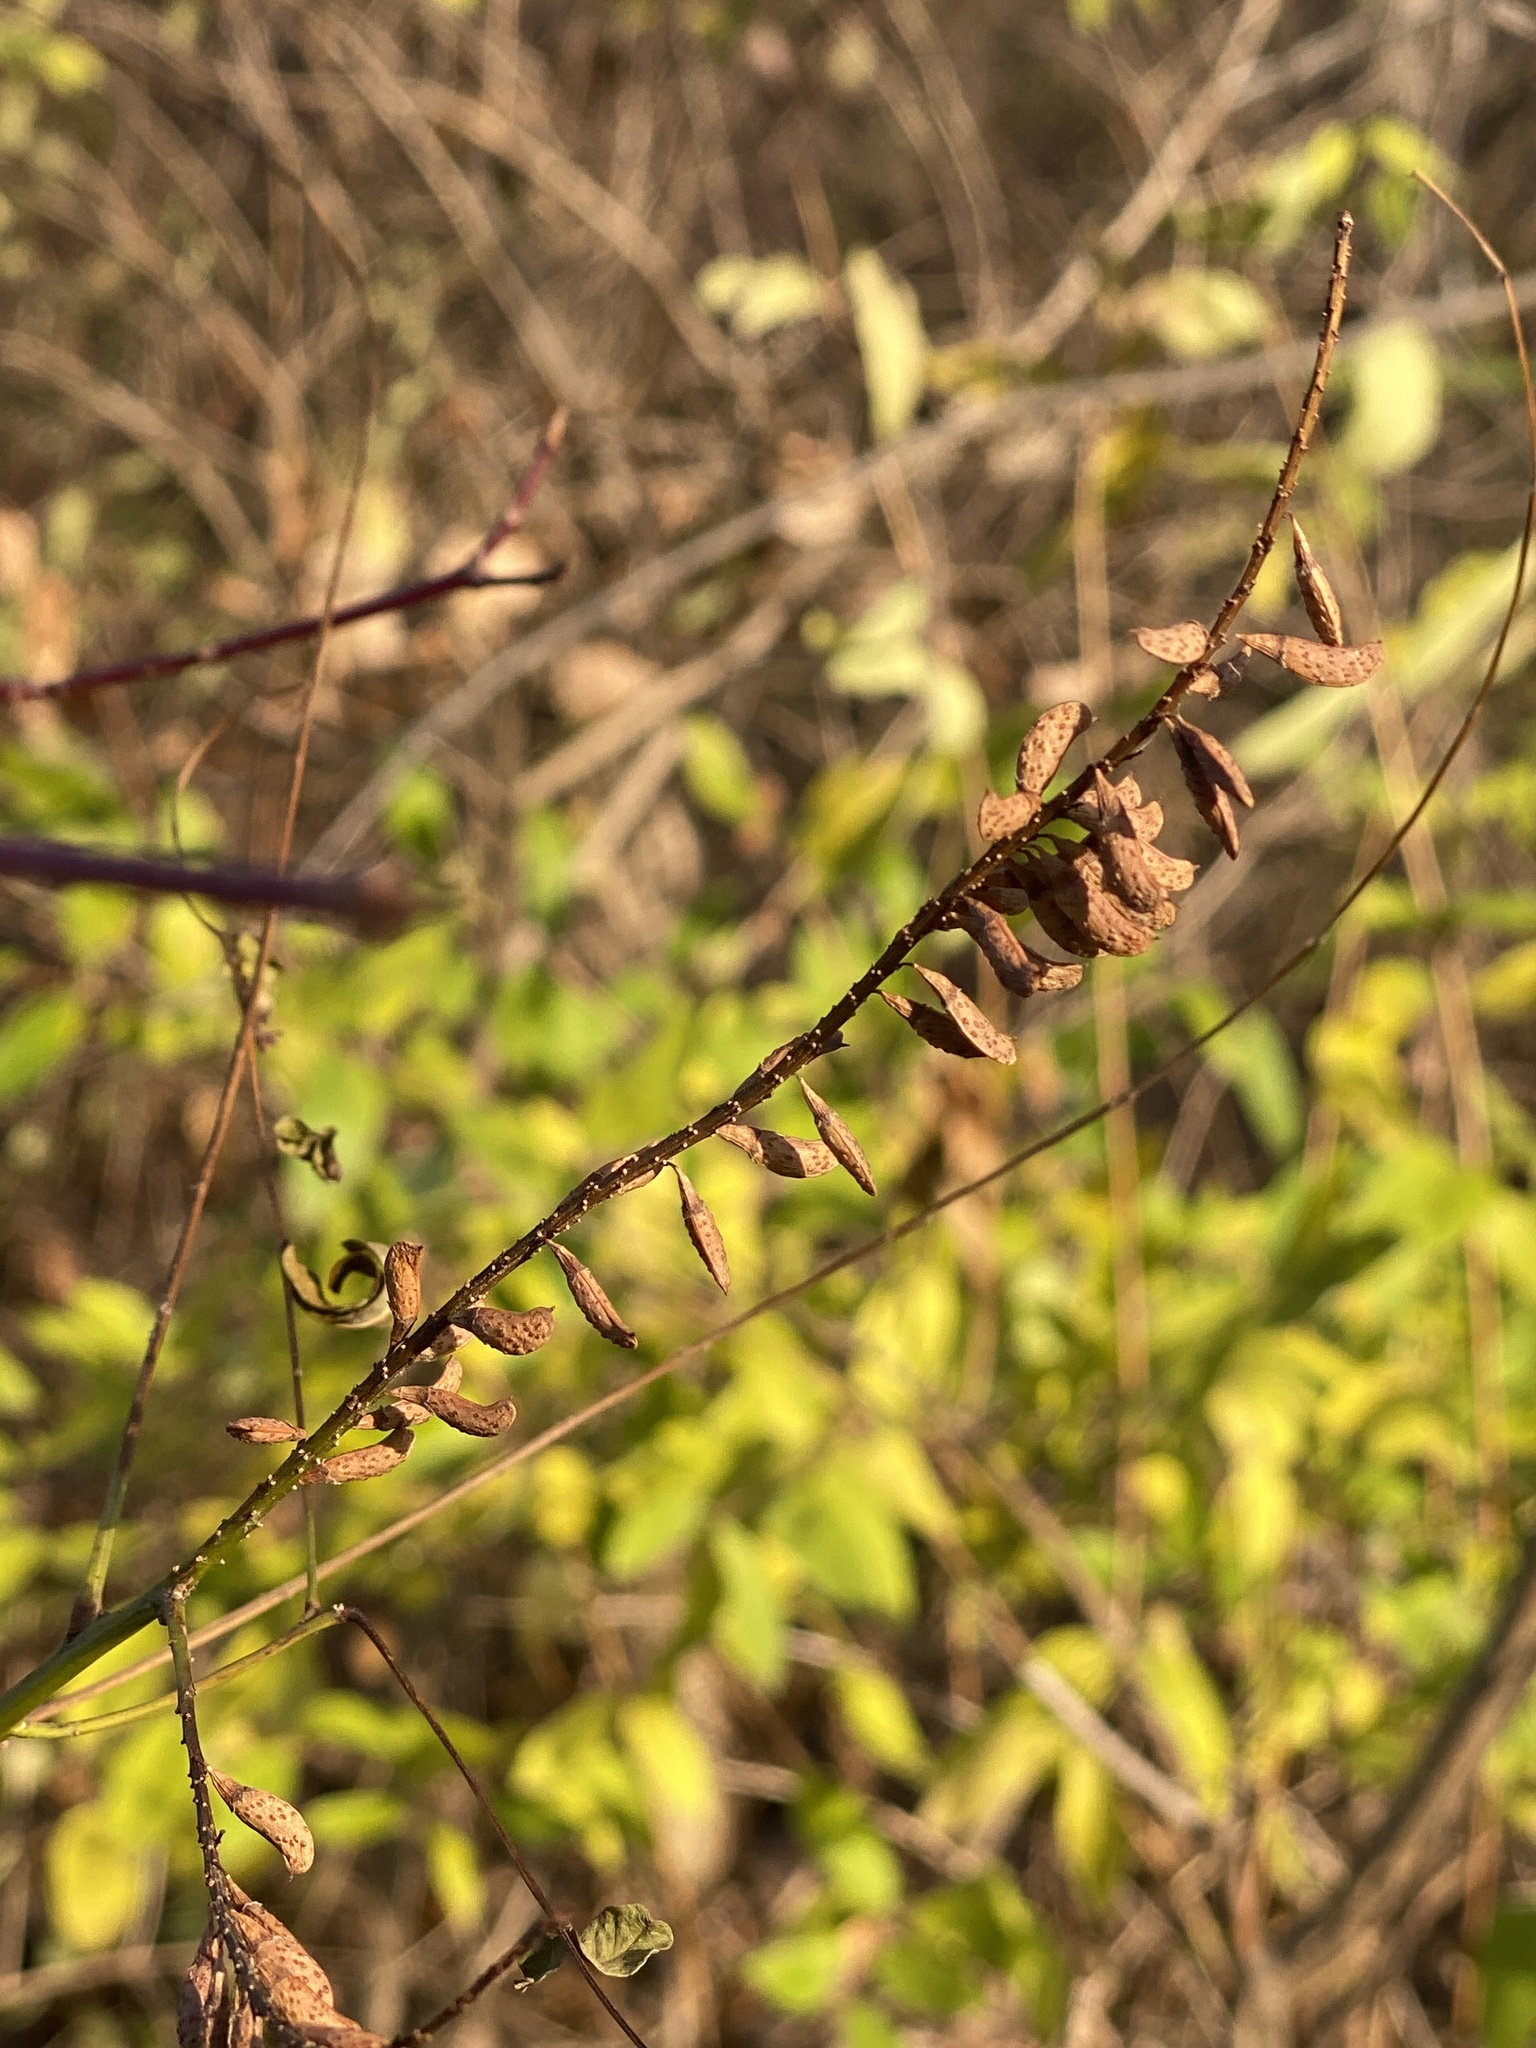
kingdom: Plantae
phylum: Tracheophyta
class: Magnoliopsida
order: Fabales
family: Fabaceae
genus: Amorpha
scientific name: Amorpha fruticosa
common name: False indigo
